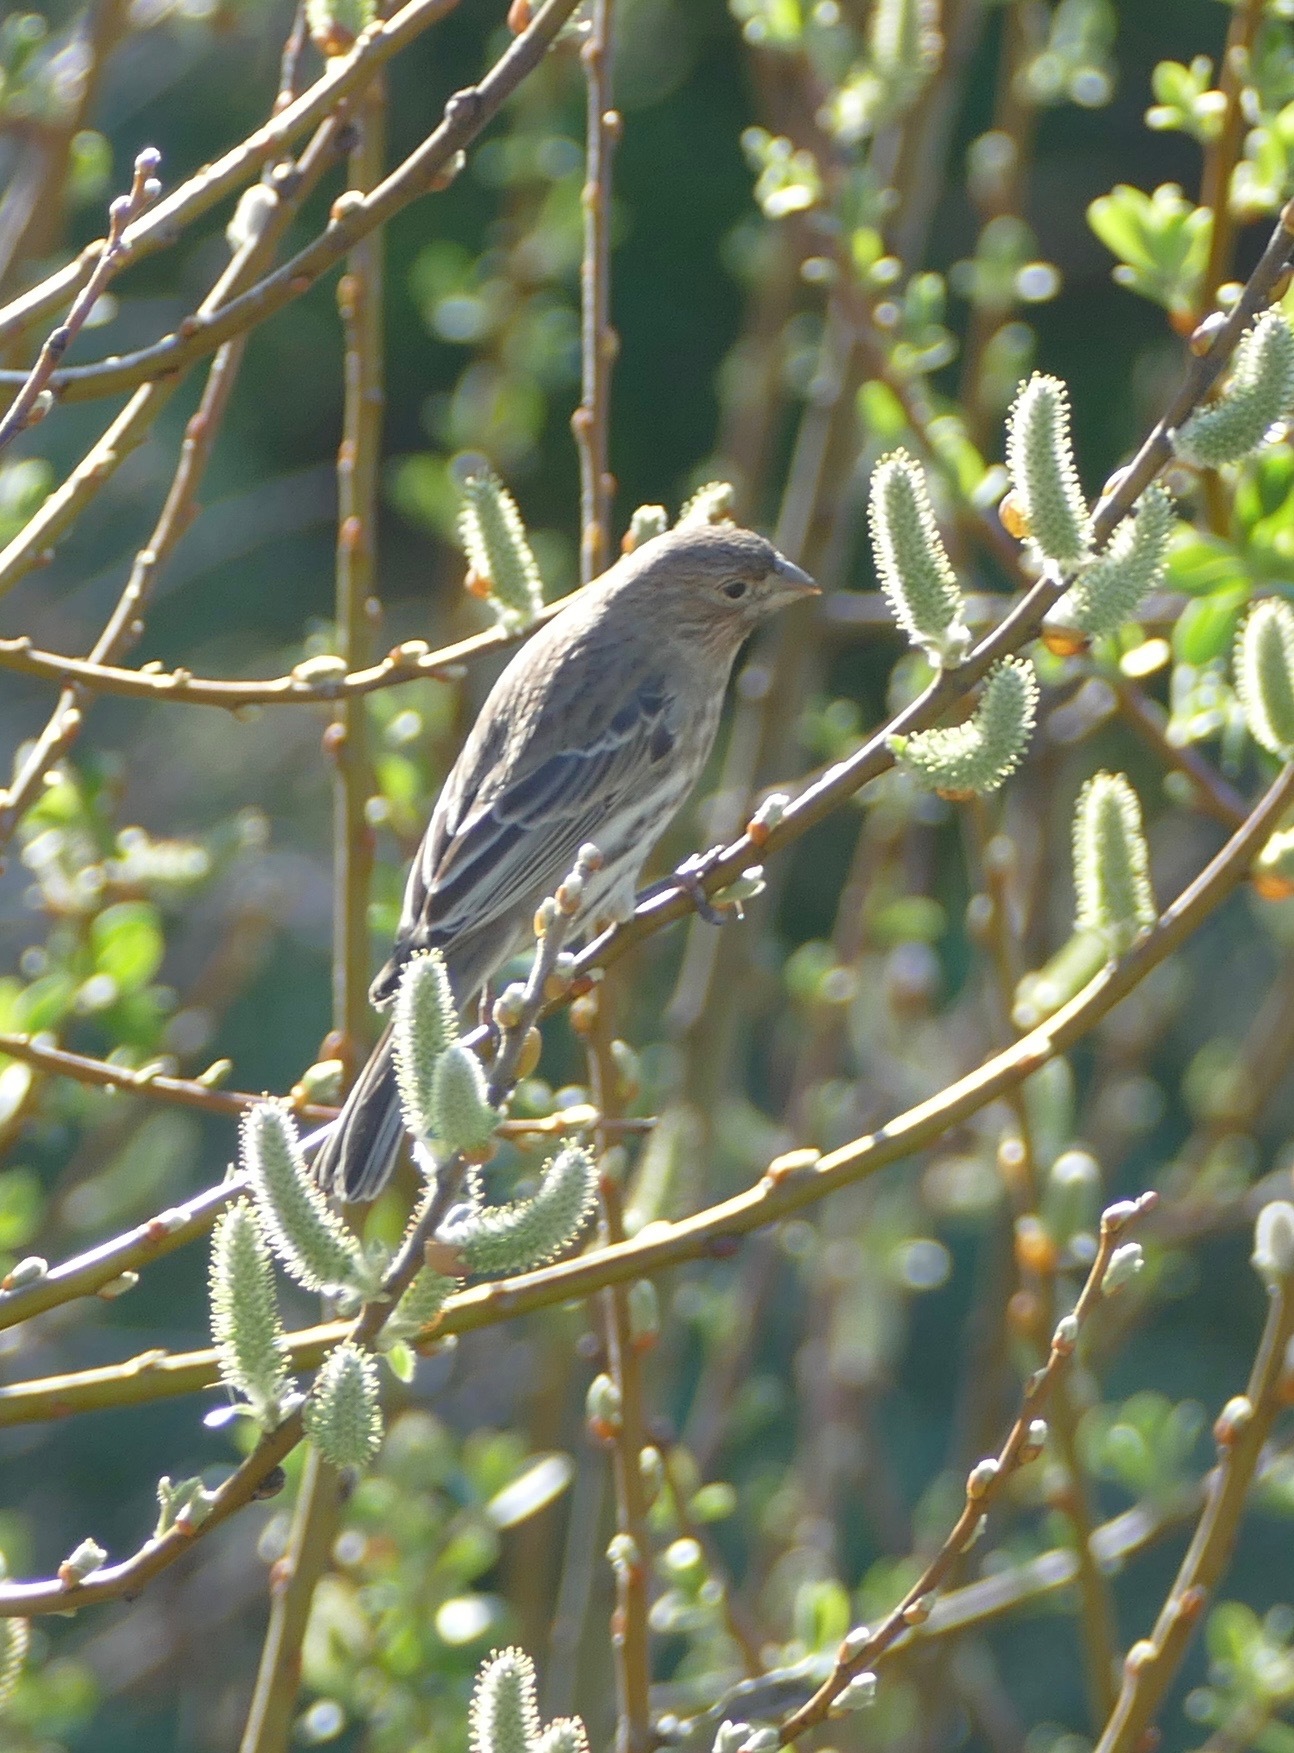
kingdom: Animalia
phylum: Chordata
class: Aves
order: Passeriformes
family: Fringillidae
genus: Haemorhous
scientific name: Haemorhous mexicanus
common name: House finch
